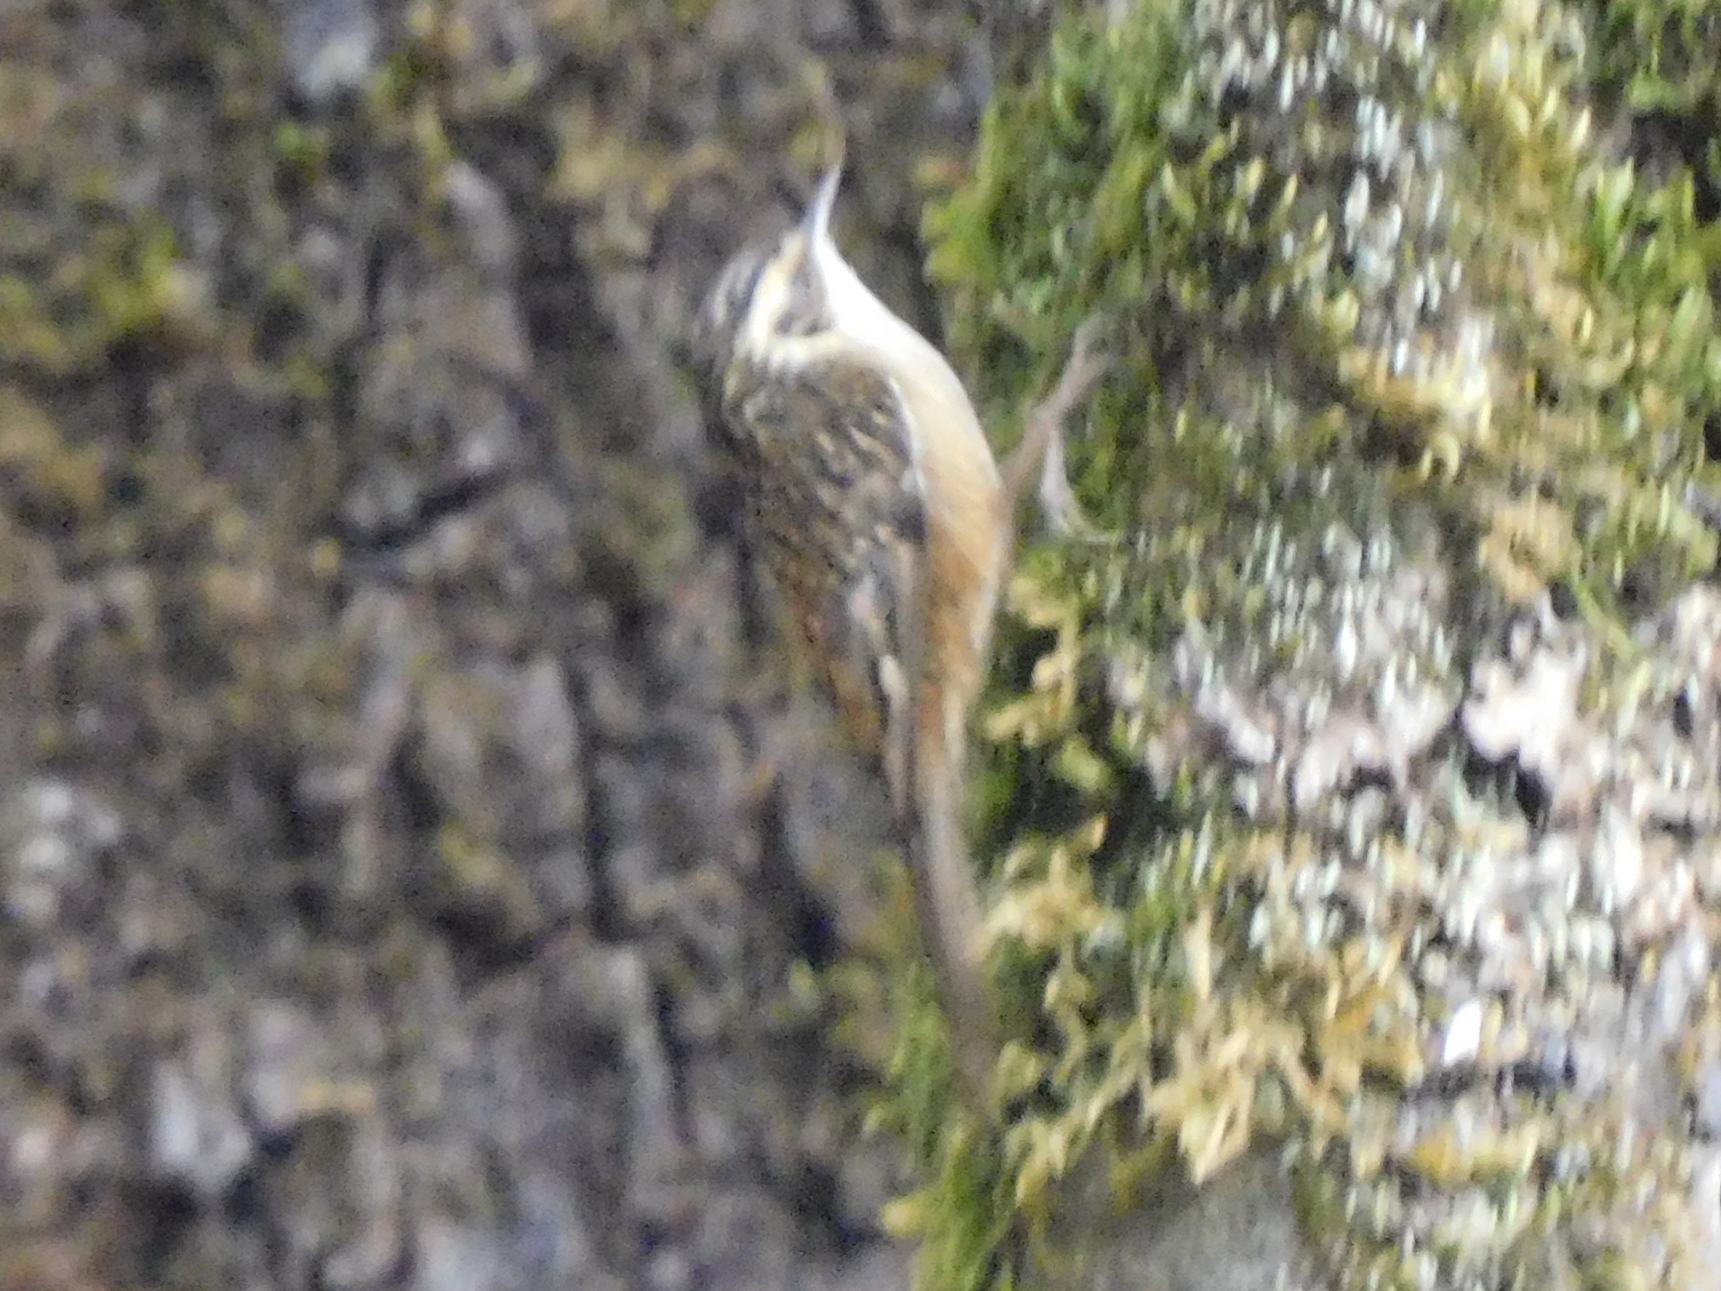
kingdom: Animalia
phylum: Chordata
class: Aves
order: Passeriformes
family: Certhiidae
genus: Certhia
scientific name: Certhia nipalensis
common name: Rusty-flanked treecreeper
